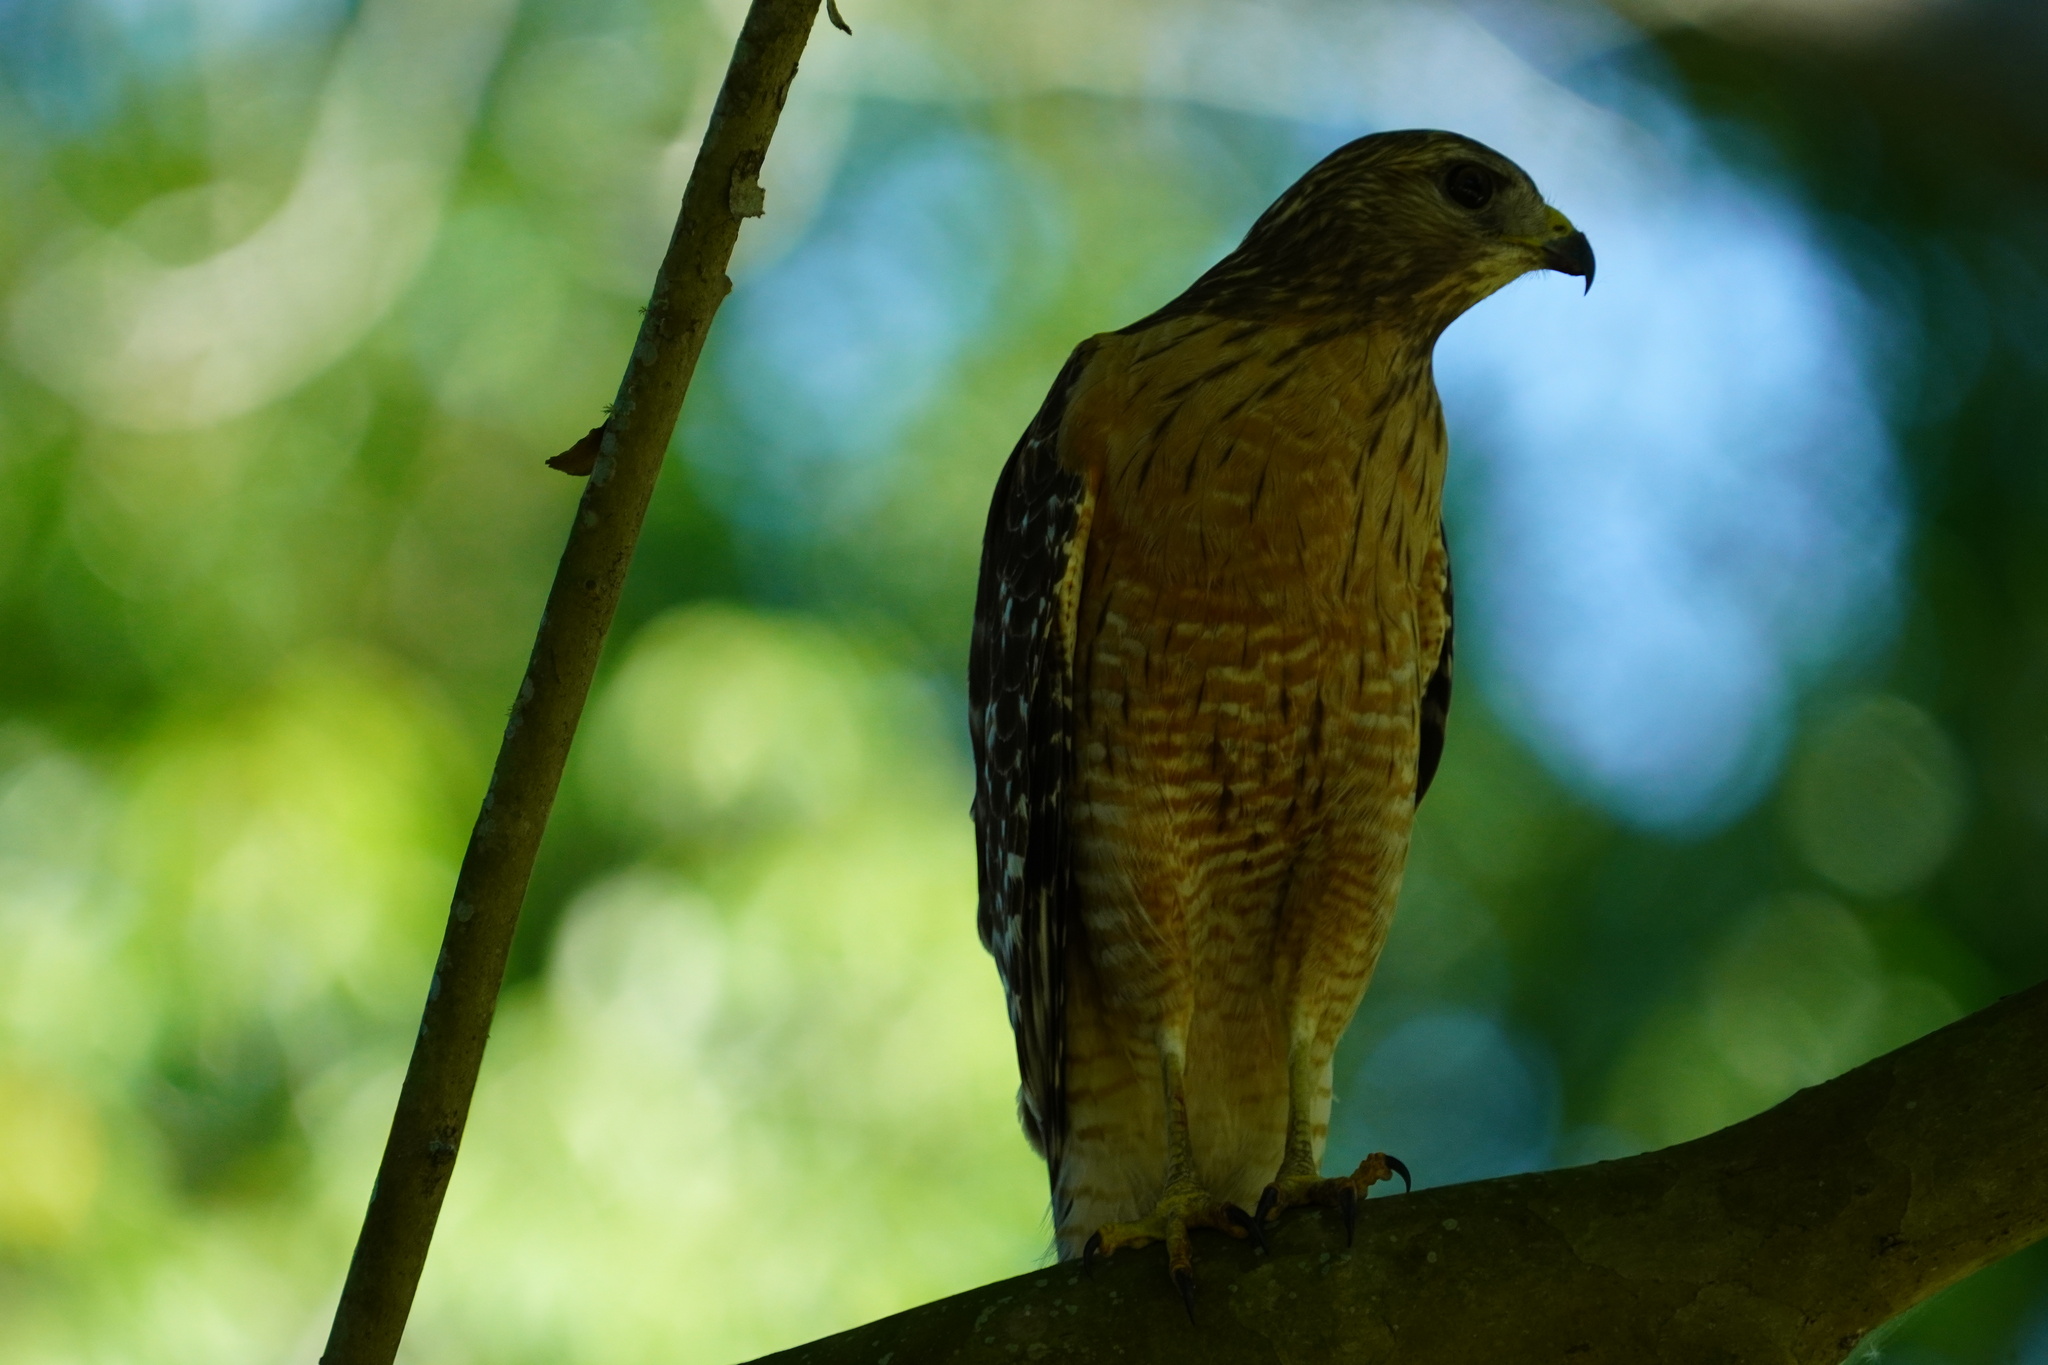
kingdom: Animalia
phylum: Chordata
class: Aves
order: Accipitriformes
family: Accipitridae
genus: Buteo
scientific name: Buteo lineatus
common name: Red-shouldered hawk
